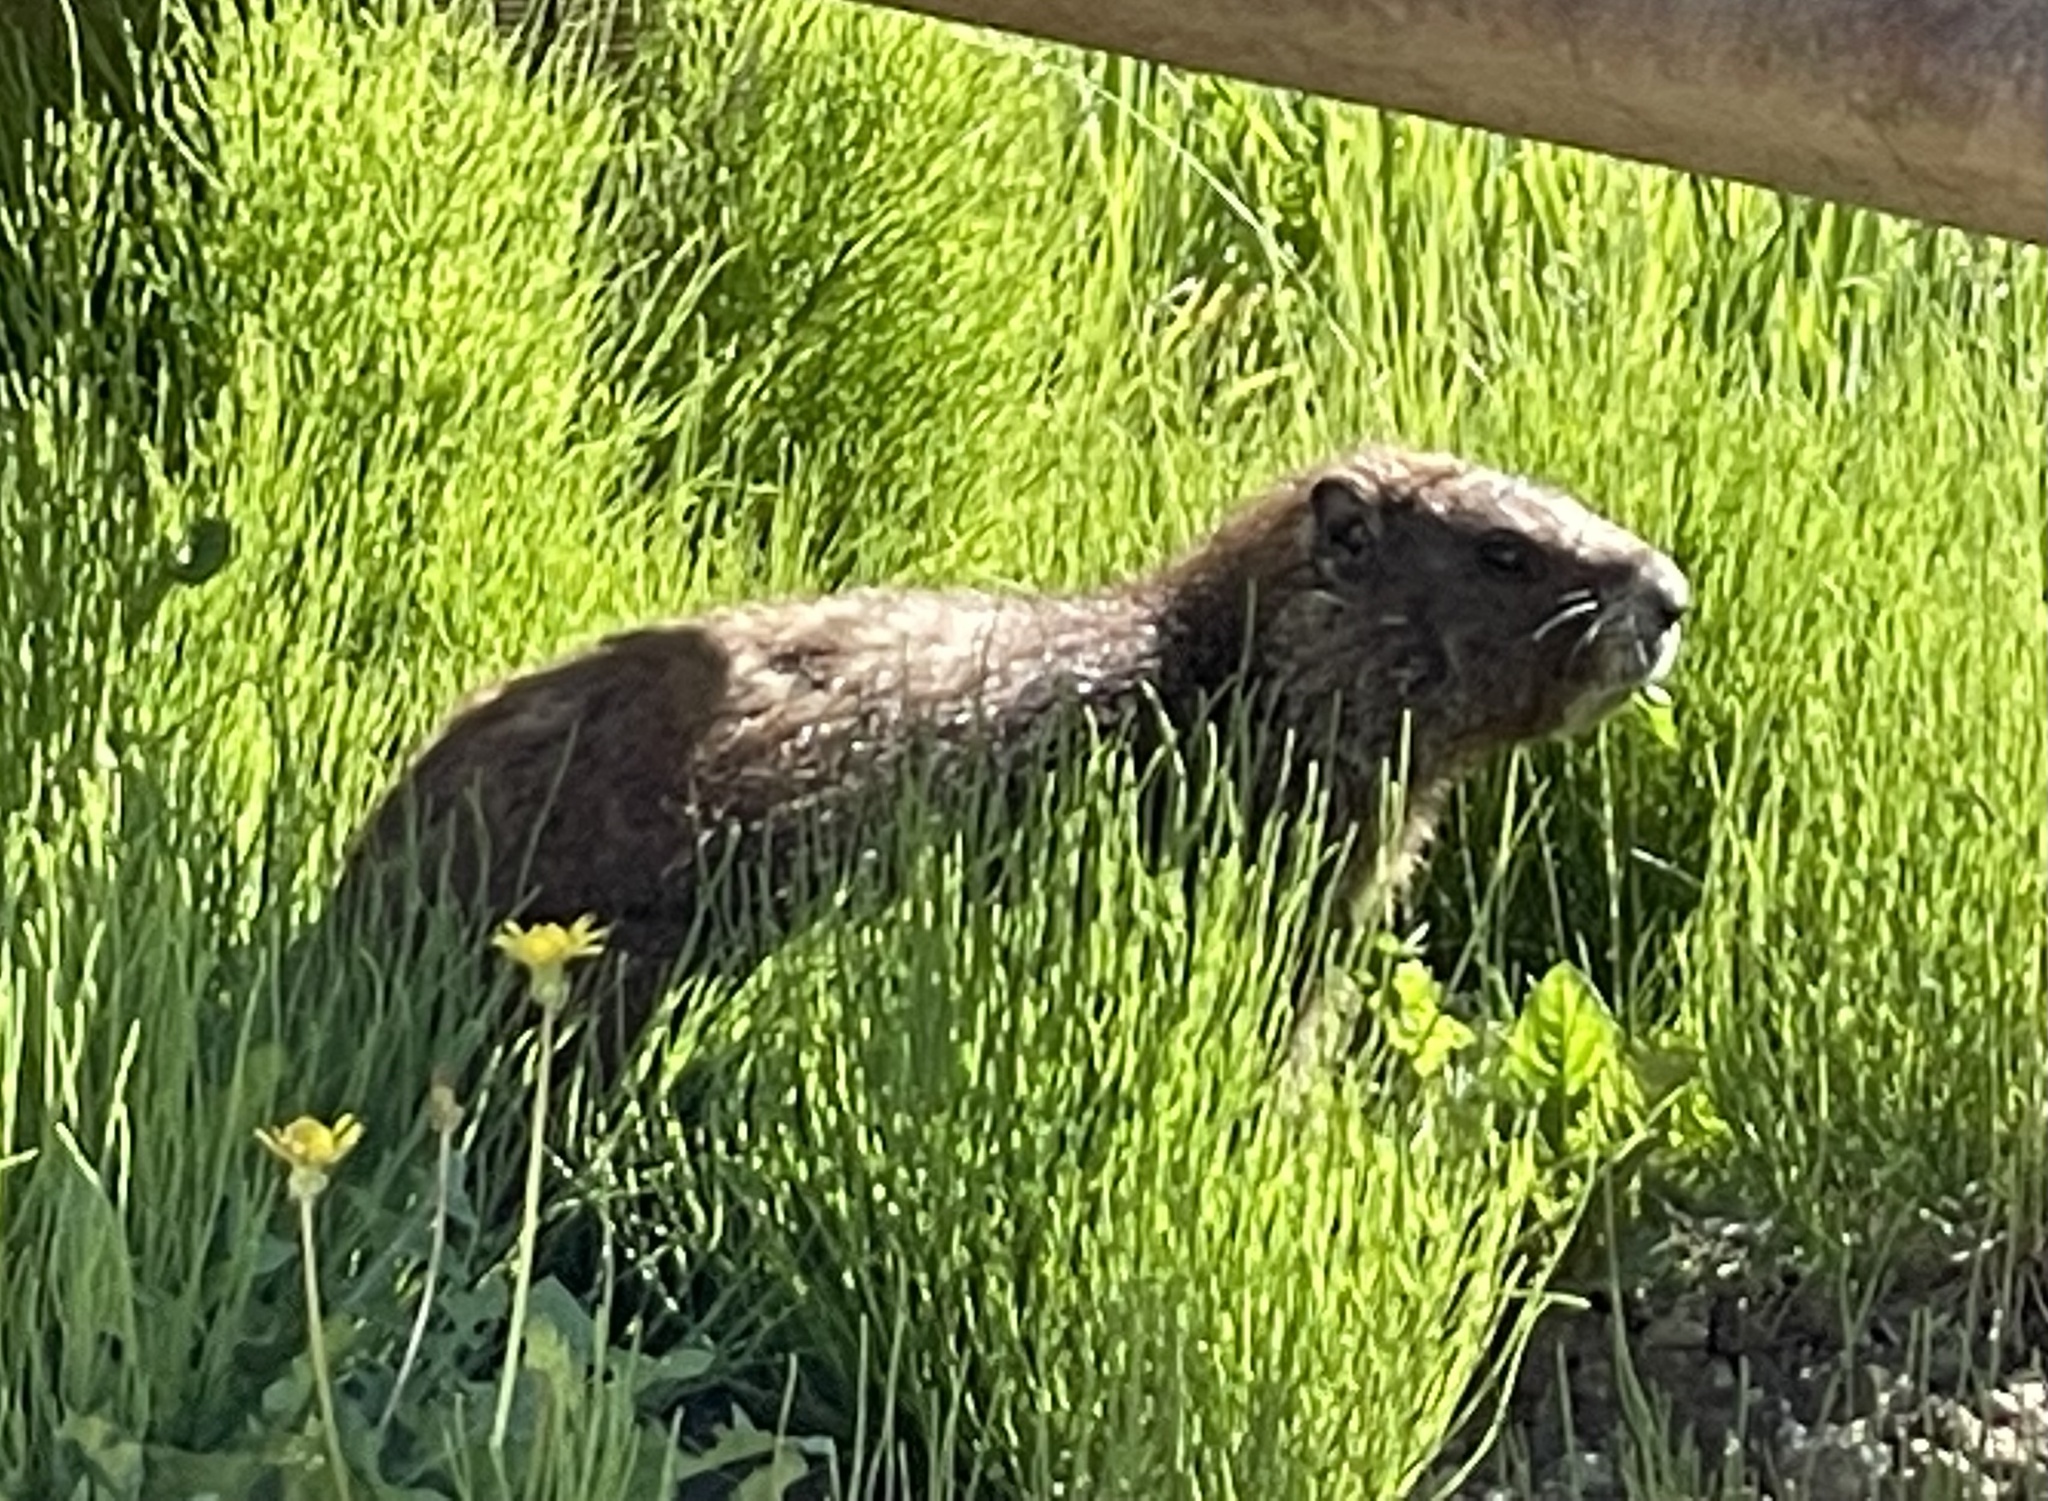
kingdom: Animalia
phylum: Chordata
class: Mammalia
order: Rodentia
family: Sciuridae
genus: Marmota
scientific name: Marmota flaviventris
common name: Yellow-bellied marmot
